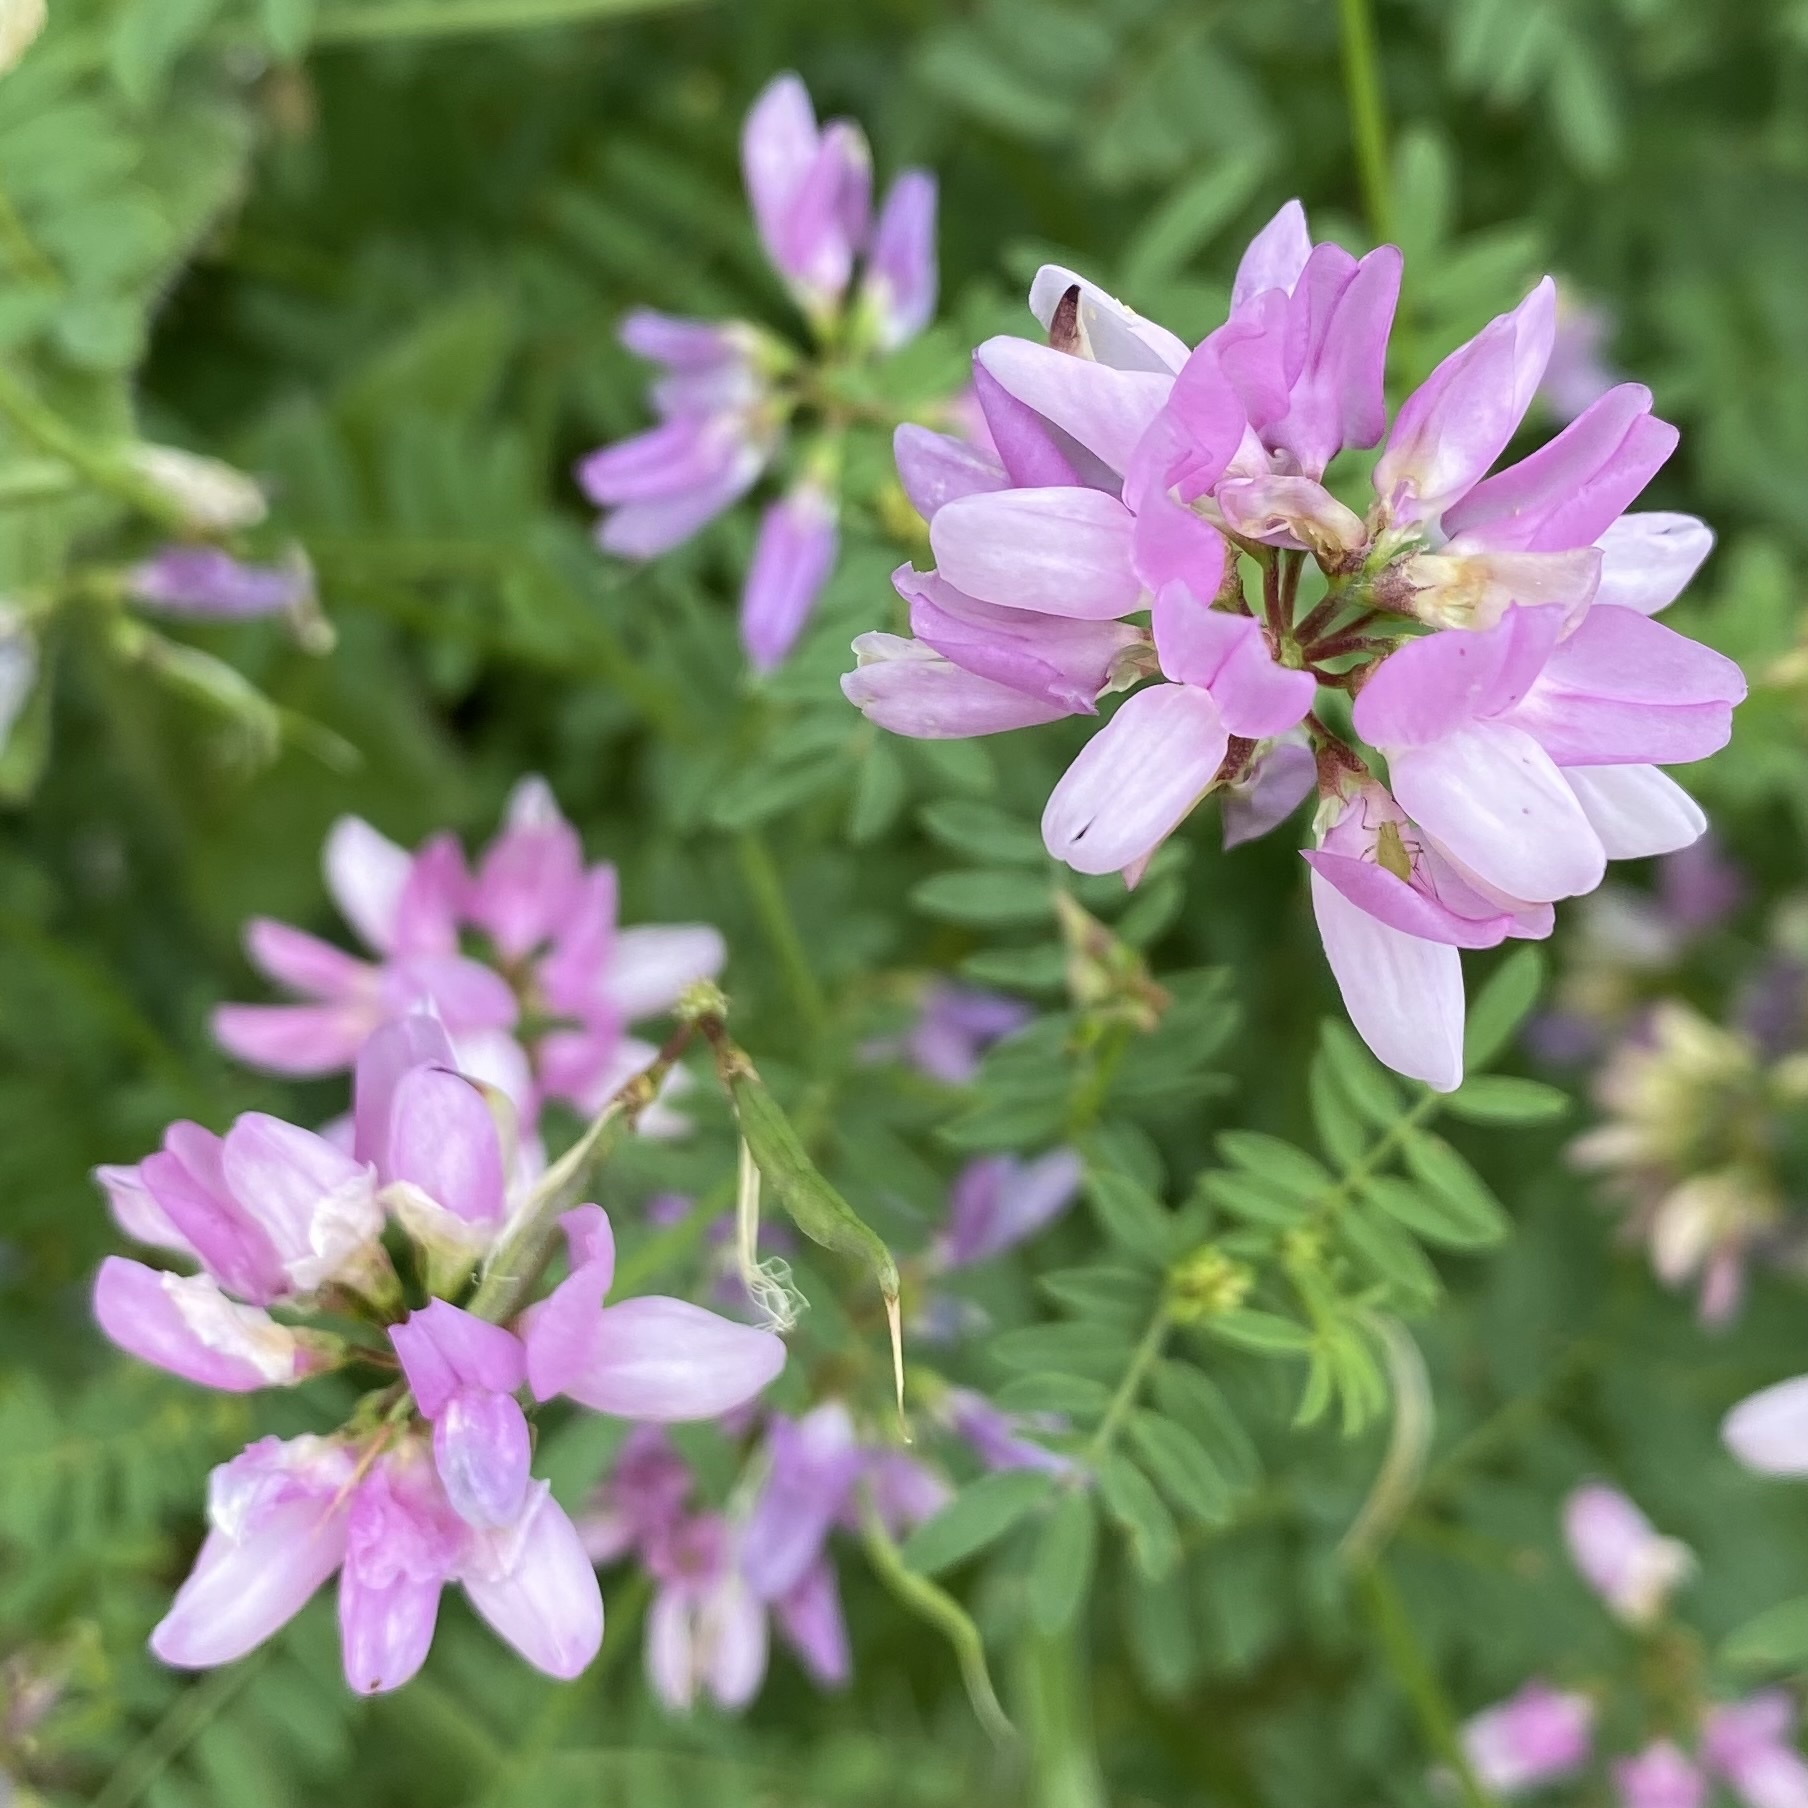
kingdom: Plantae
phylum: Tracheophyta
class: Magnoliopsida
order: Fabales
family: Fabaceae
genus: Coronilla
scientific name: Coronilla varia
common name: Crownvetch
